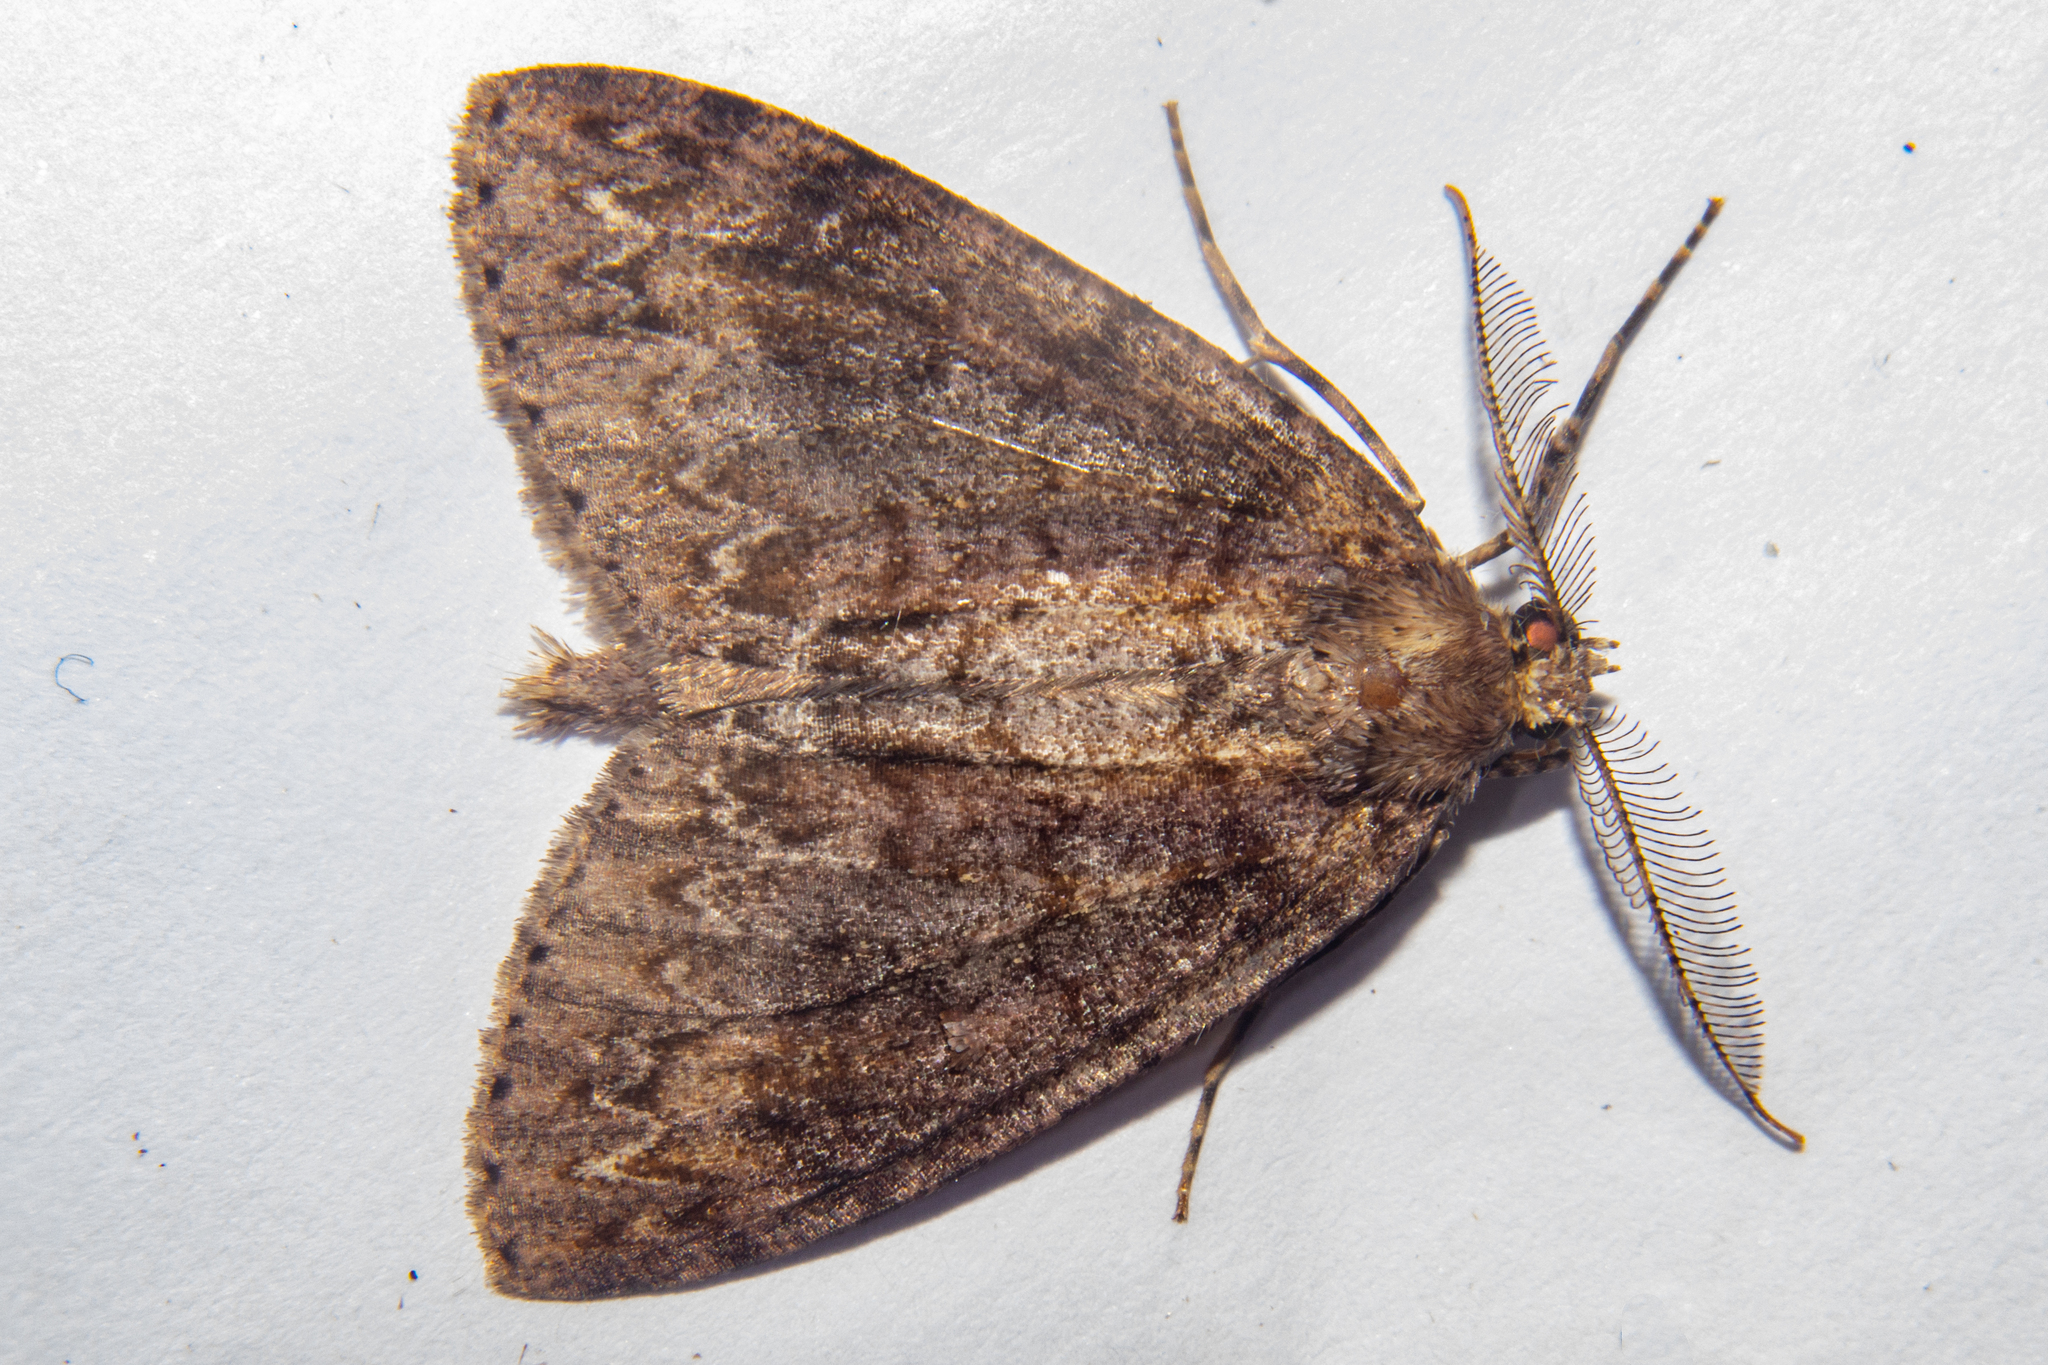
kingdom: Animalia
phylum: Arthropoda
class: Insecta
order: Lepidoptera
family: Geometridae
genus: Pseudocoremia
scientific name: Pseudocoremia suavis
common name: Common forest looper
